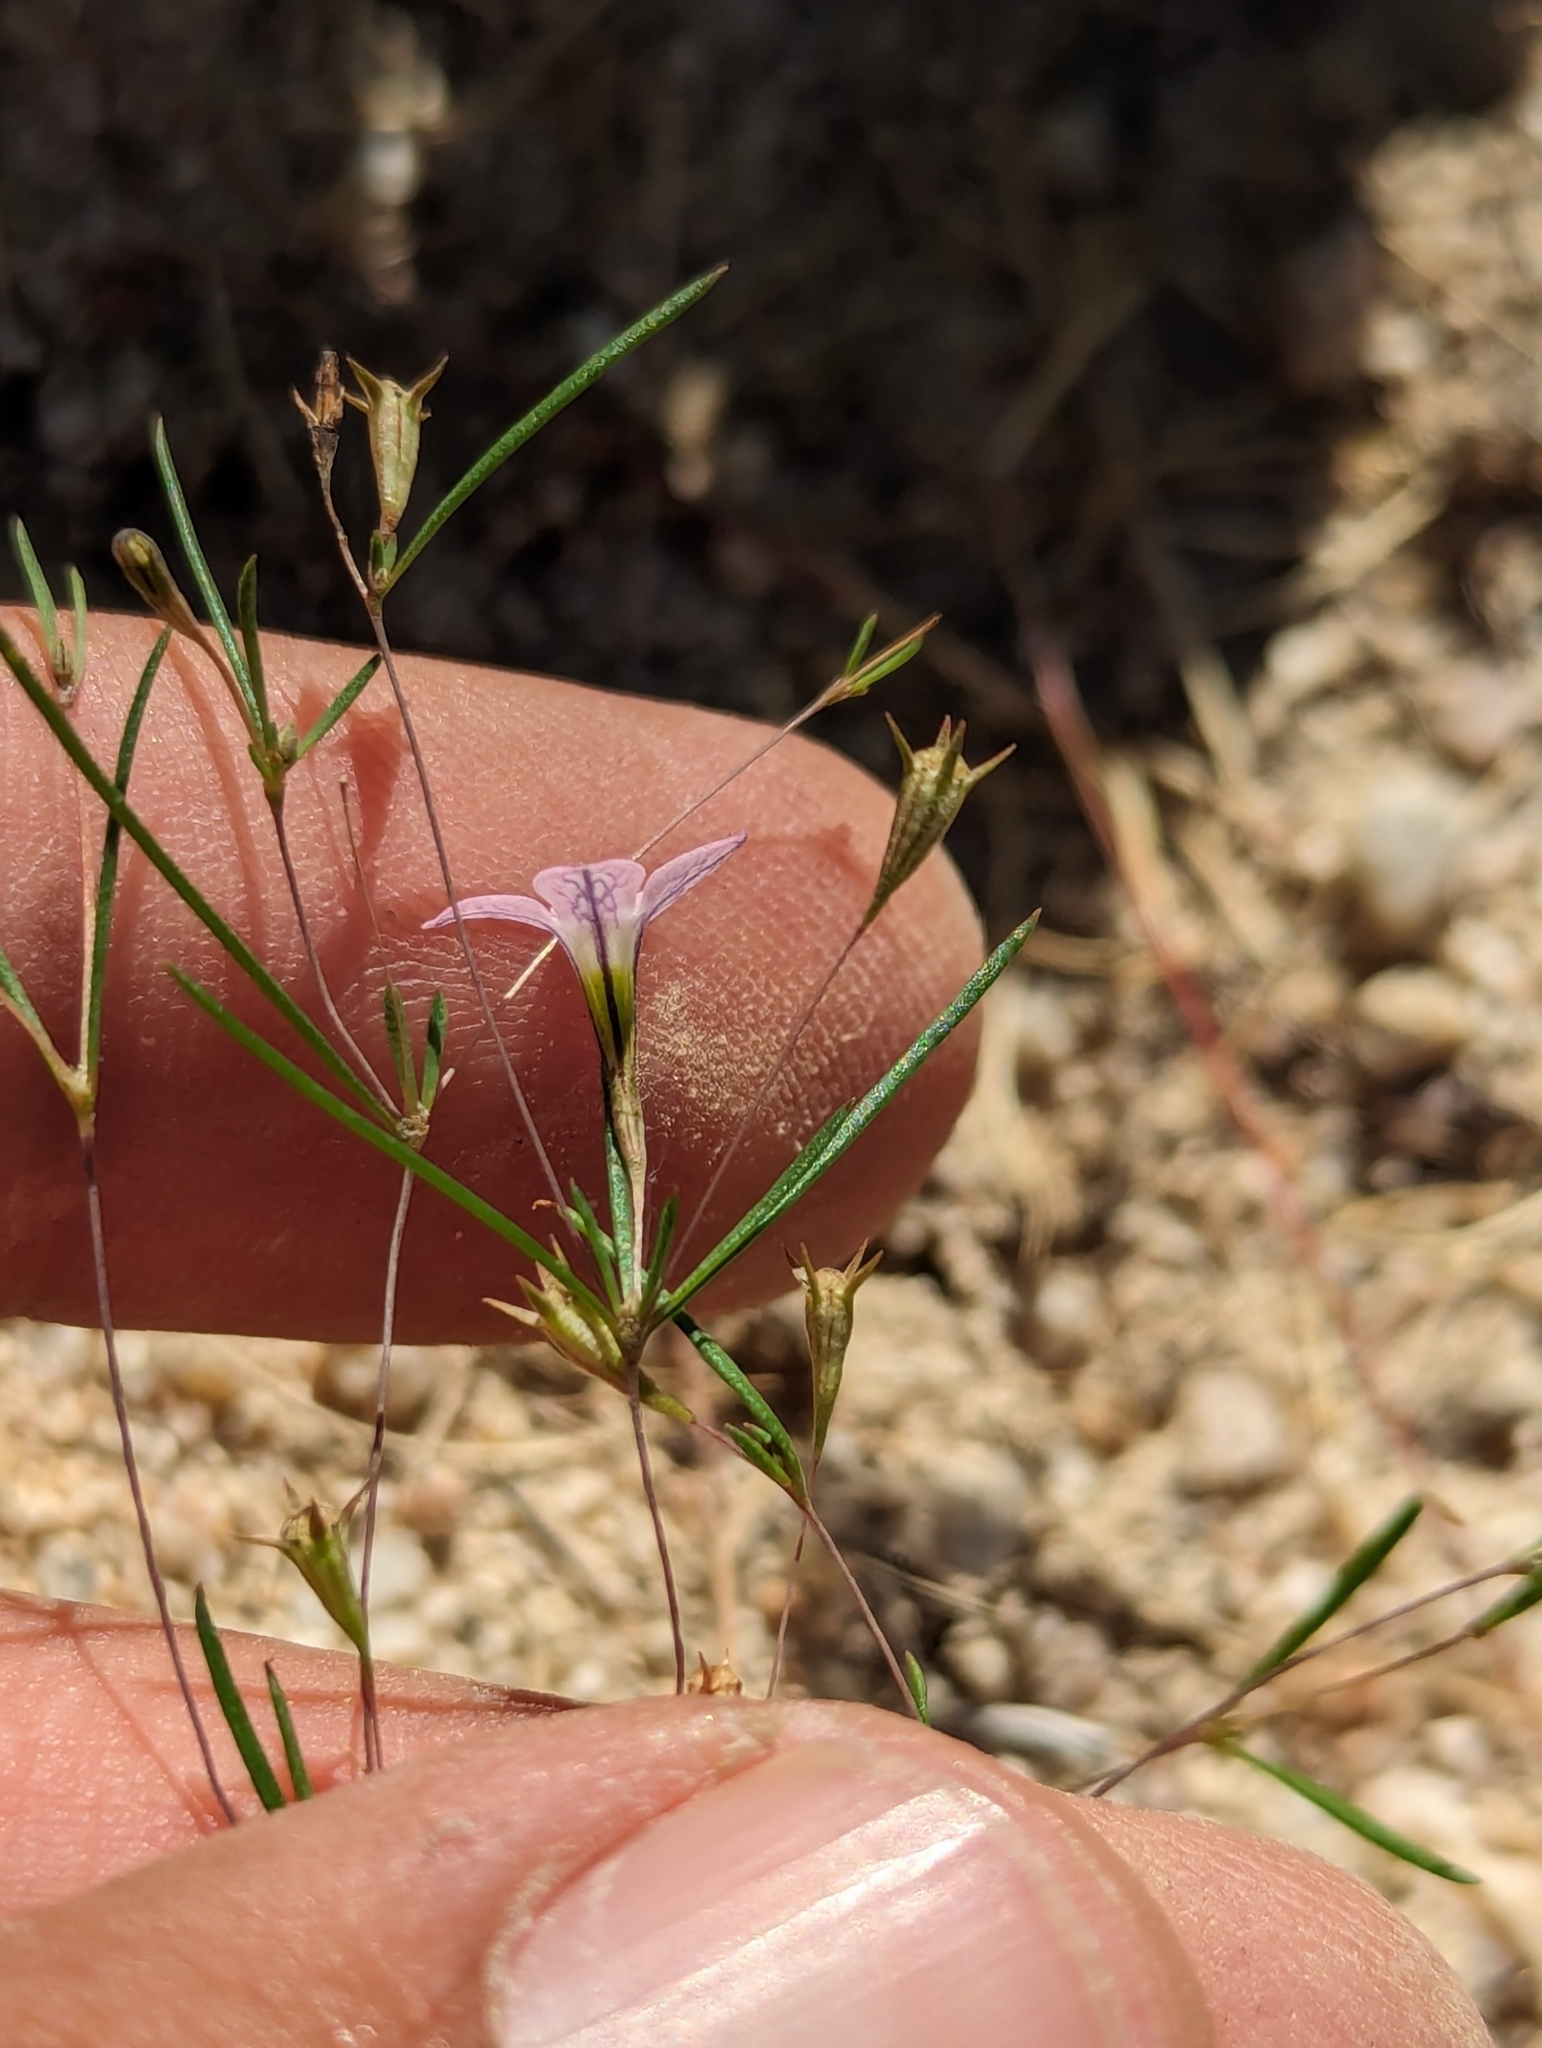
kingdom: Plantae
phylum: Tracheophyta
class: Magnoliopsida
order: Gentianales
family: Rubiaceae
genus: Stenotis
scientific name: Stenotis asperuloides
